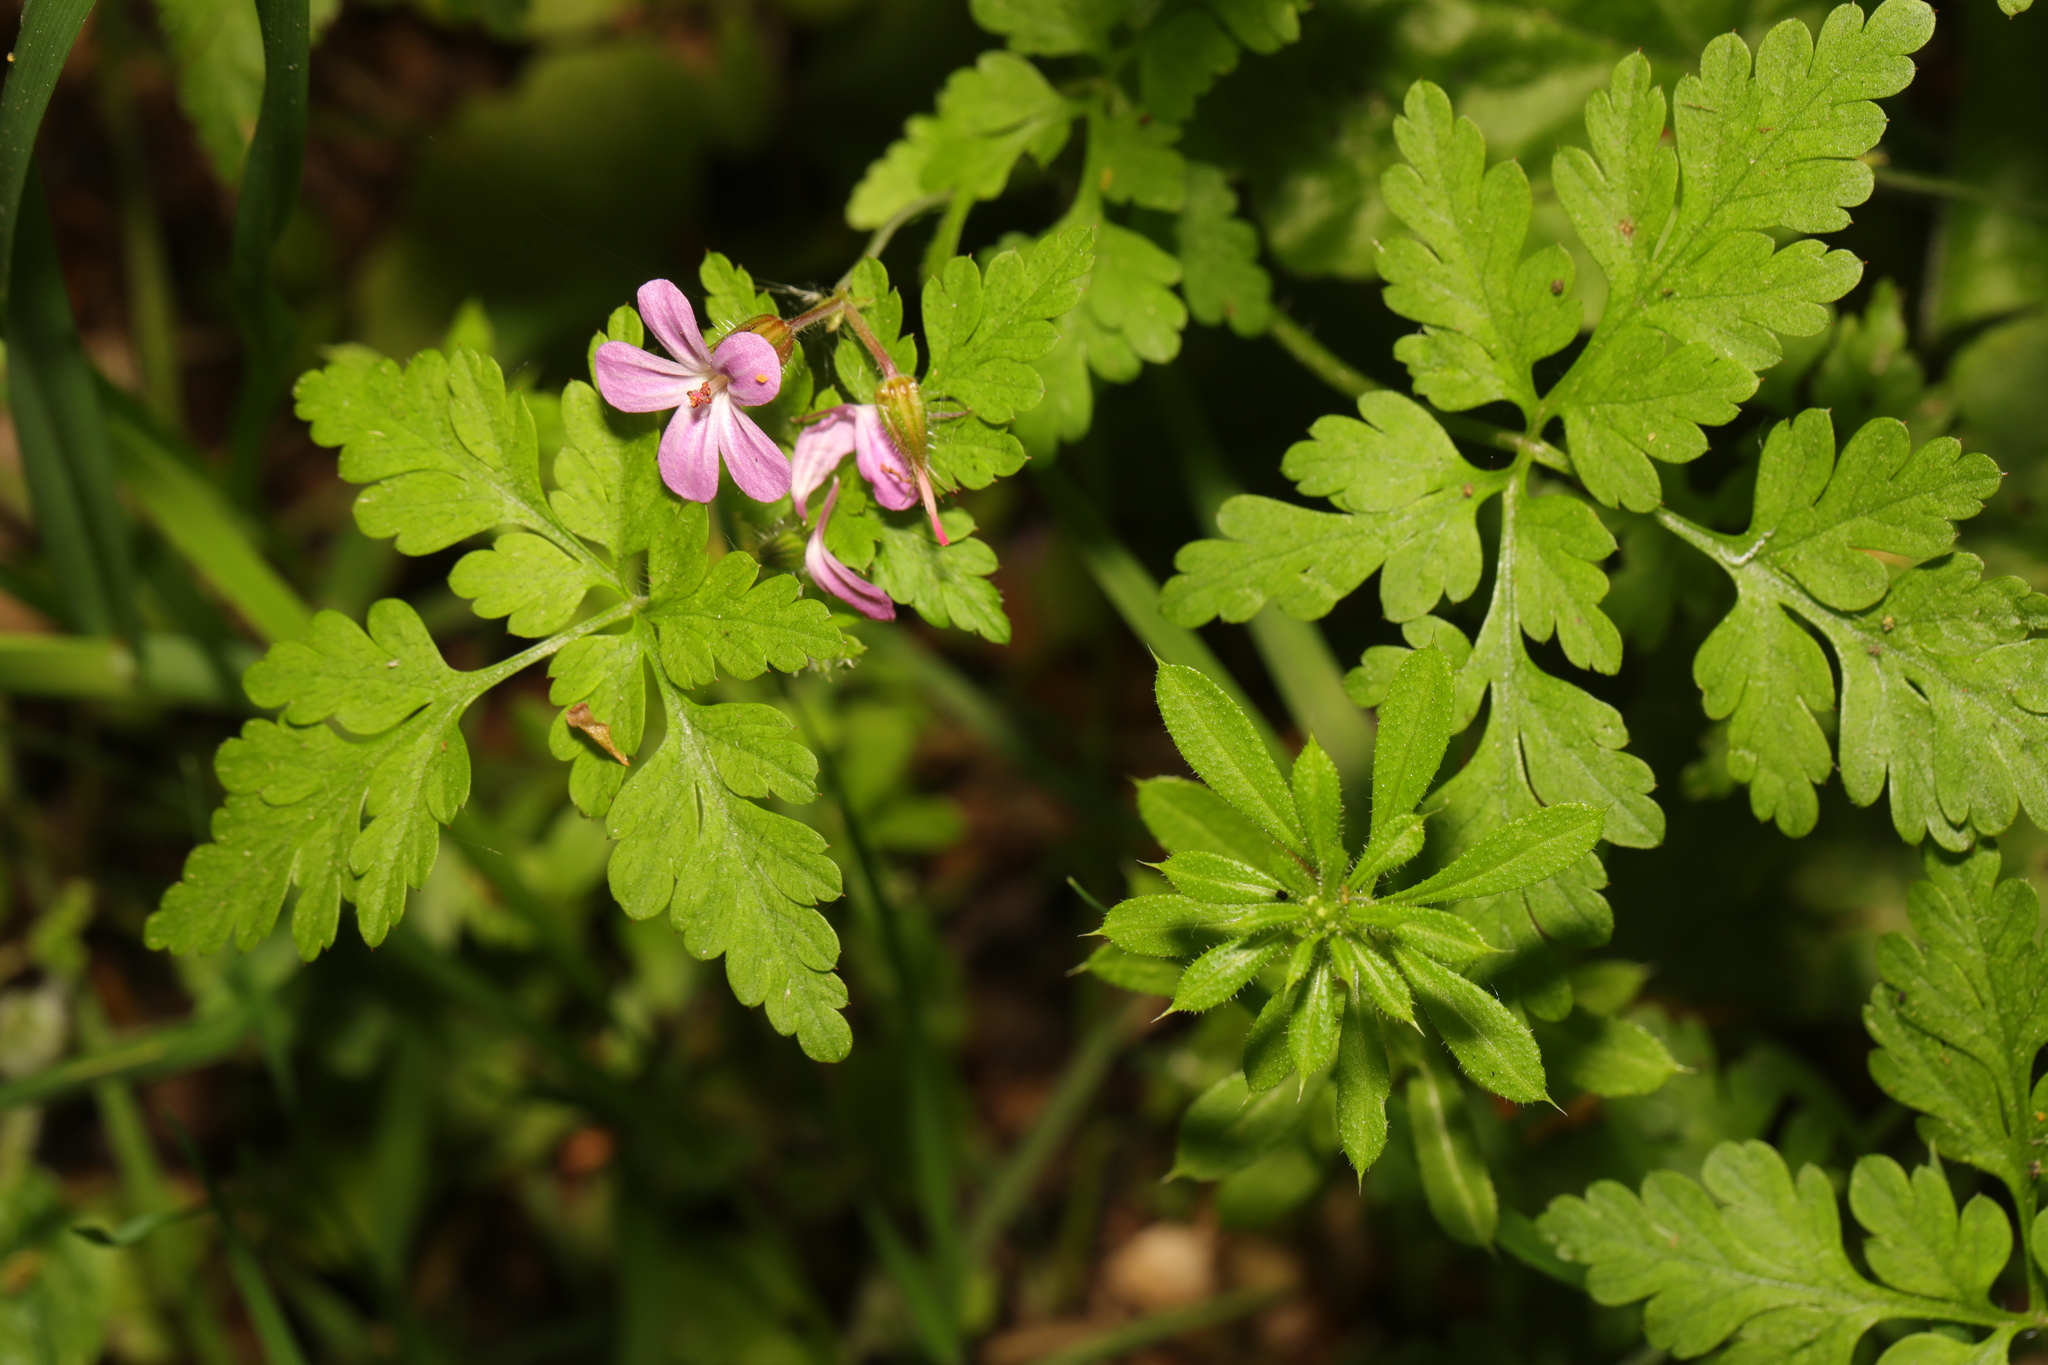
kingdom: Plantae
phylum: Tracheophyta
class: Magnoliopsida
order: Geraniales
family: Geraniaceae
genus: Geranium
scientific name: Geranium robertianum
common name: Herb-robert
